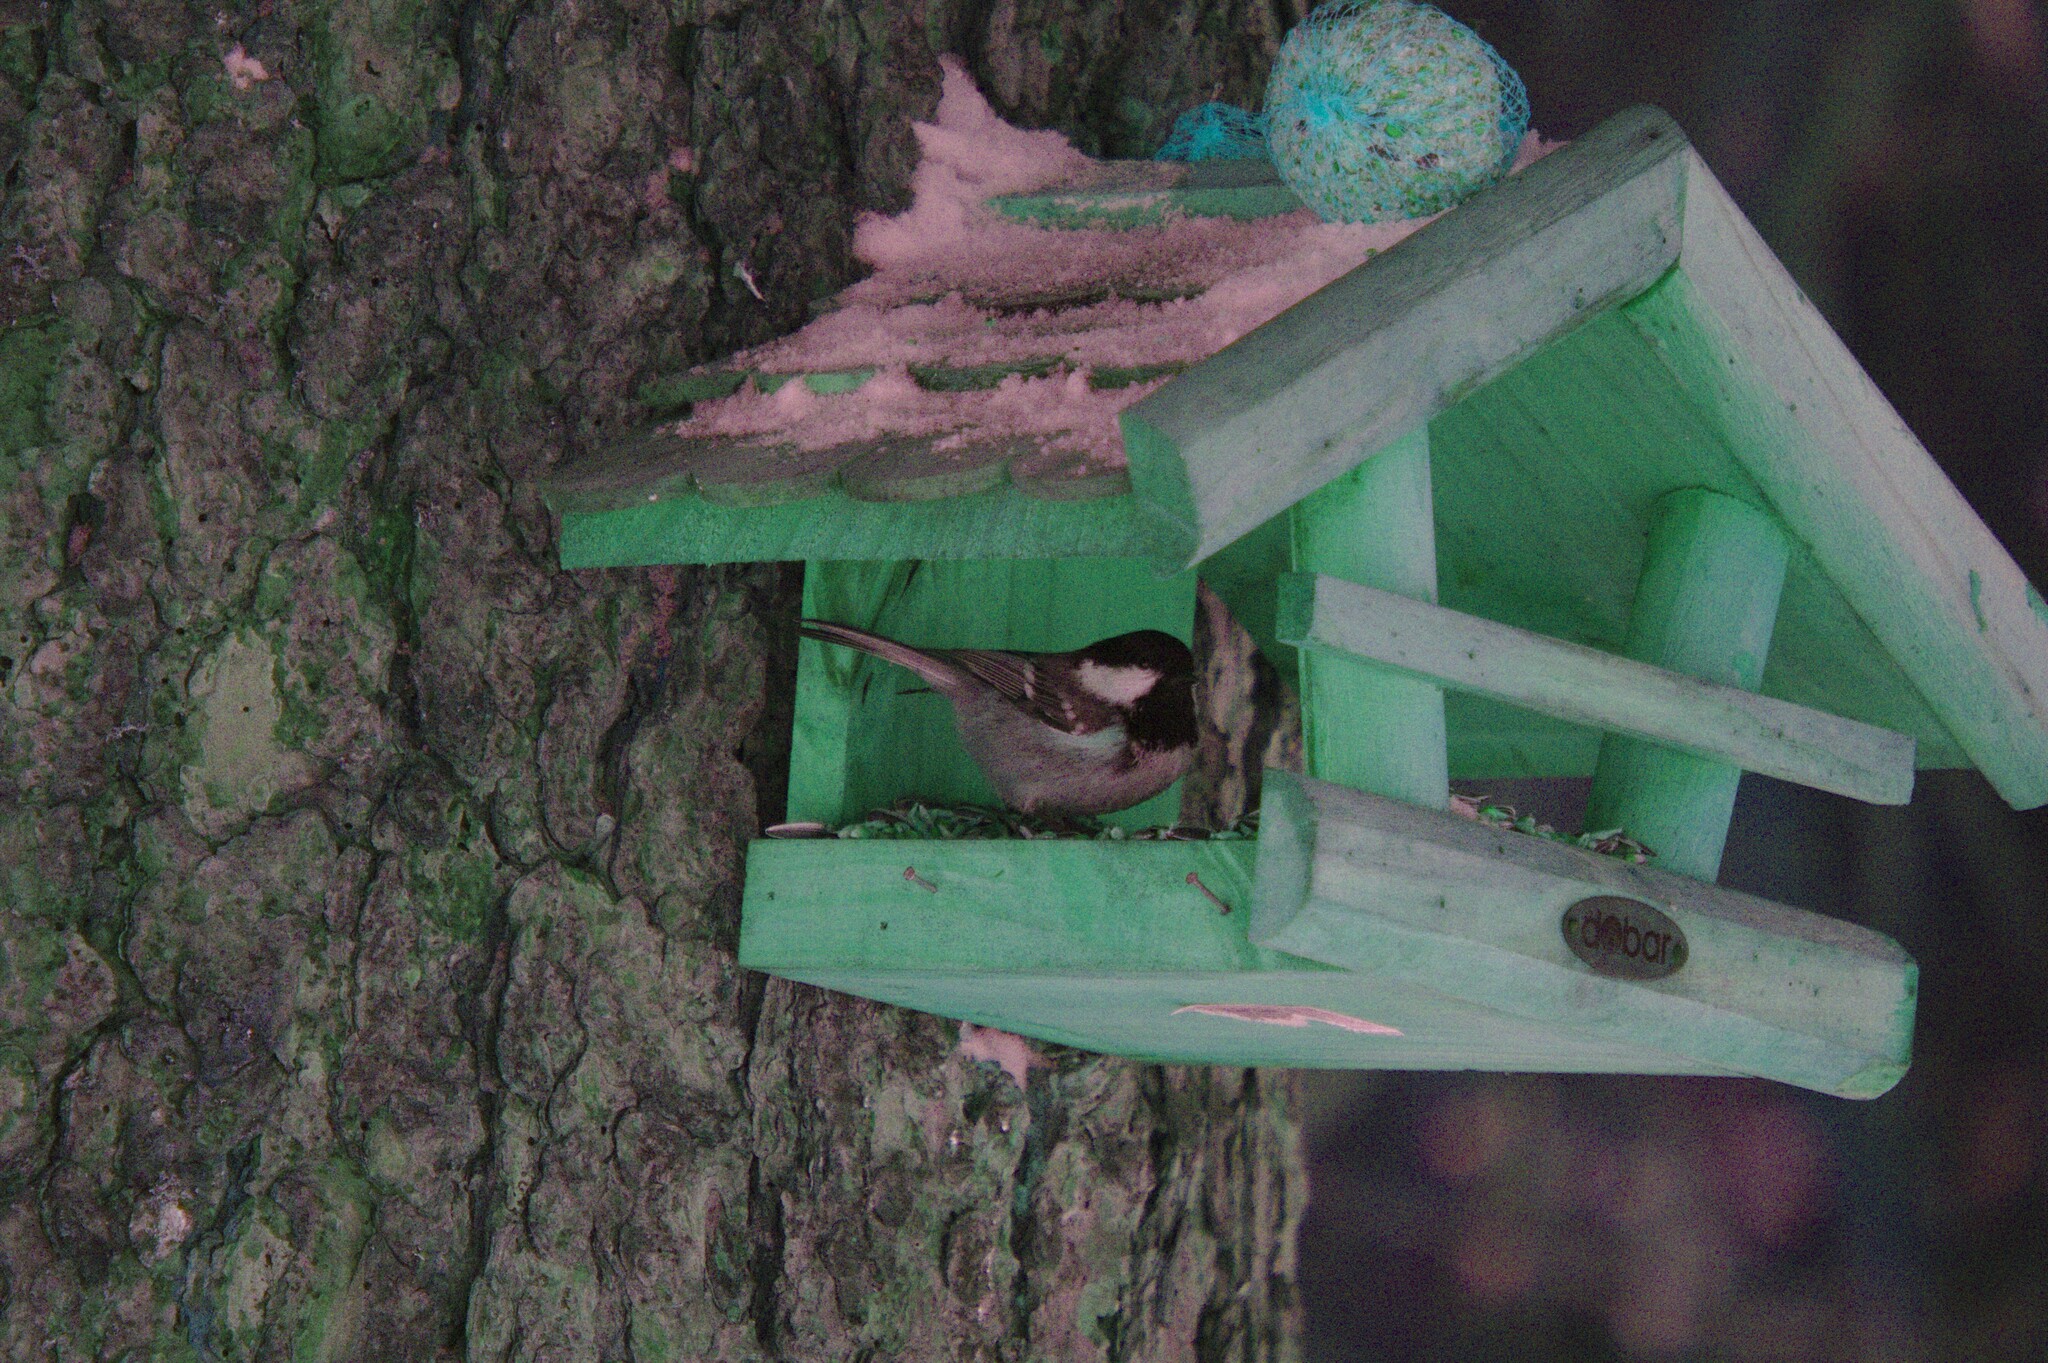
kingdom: Animalia
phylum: Chordata
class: Aves
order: Passeriformes
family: Paridae
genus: Periparus
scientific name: Periparus ater
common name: Coal tit
